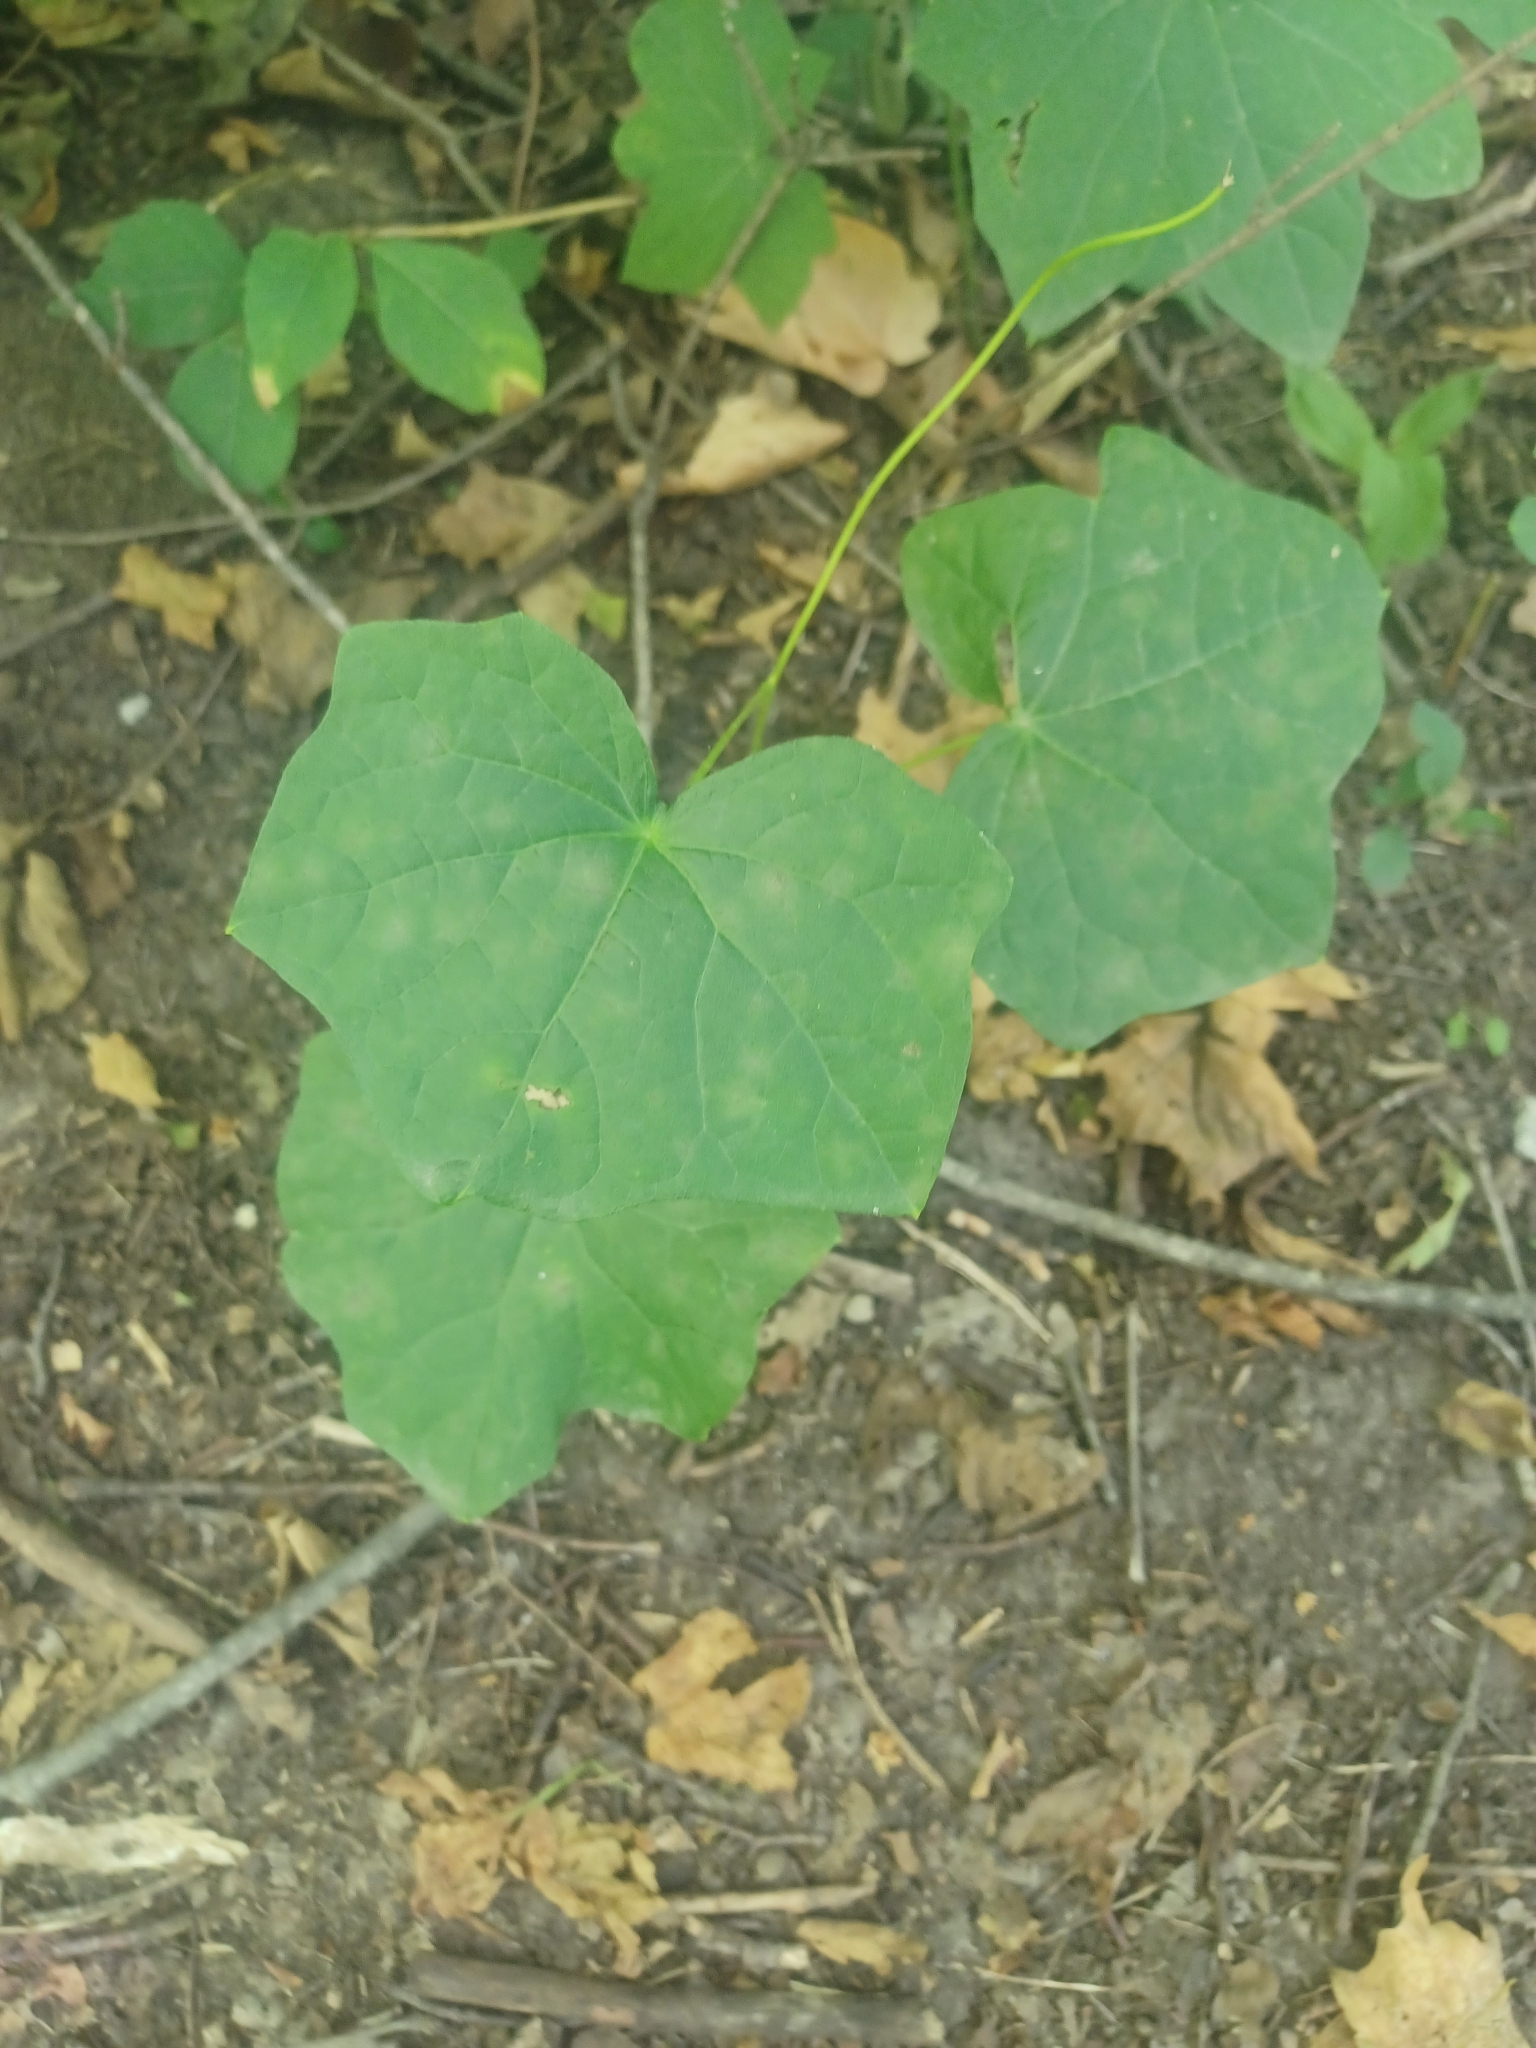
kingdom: Plantae
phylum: Tracheophyta
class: Magnoliopsida
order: Ranunculales
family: Menispermaceae
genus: Menispermum
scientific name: Menispermum canadense
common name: Moonseed
